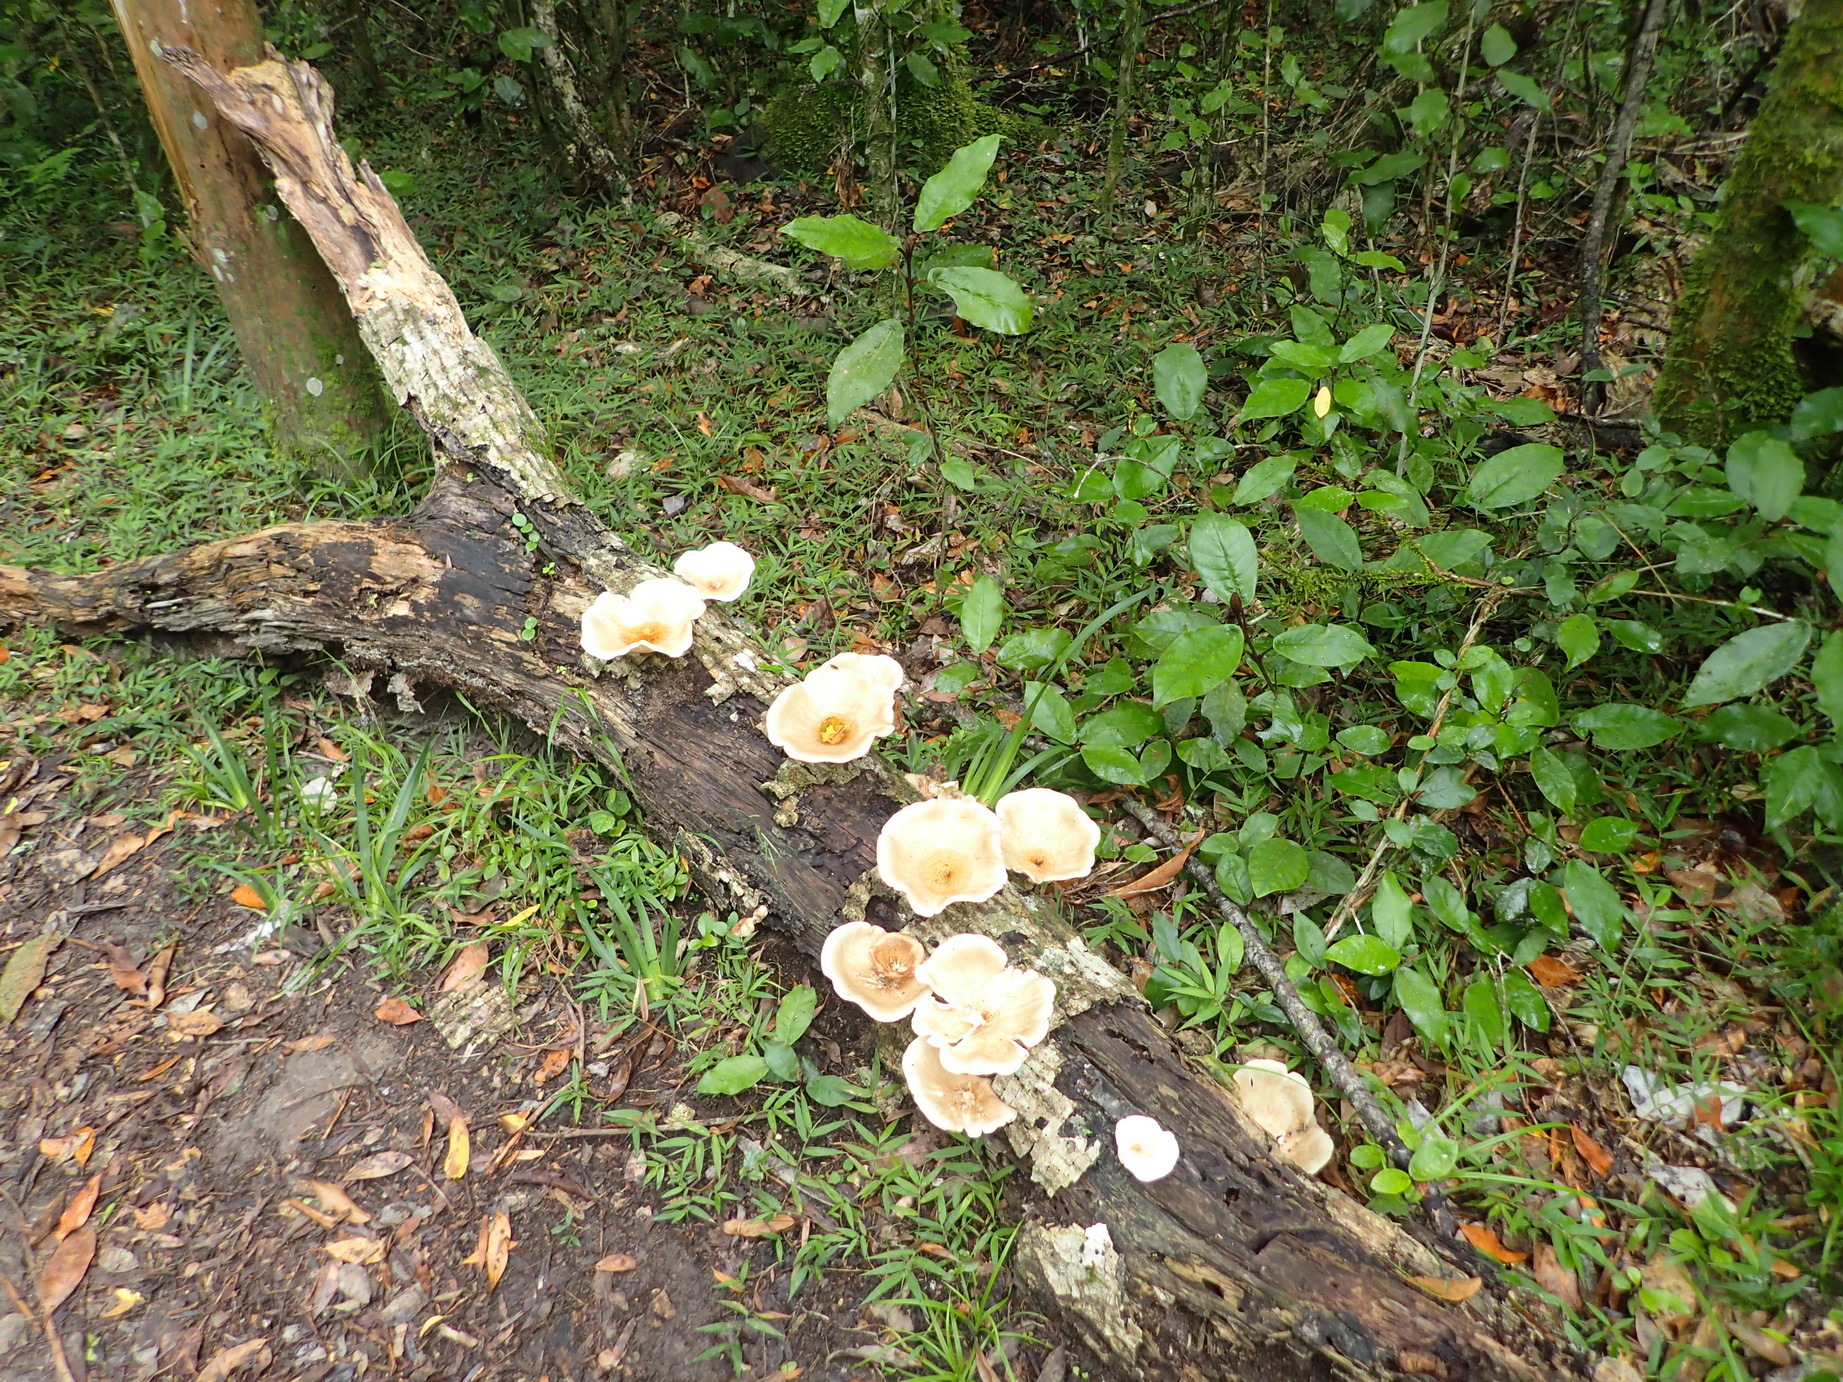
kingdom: Fungi
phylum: Basidiomycota
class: Agaricomycetes
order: Polyporales
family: Polyporaceae
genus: Lentinus
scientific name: Lentinus sajor-caju
